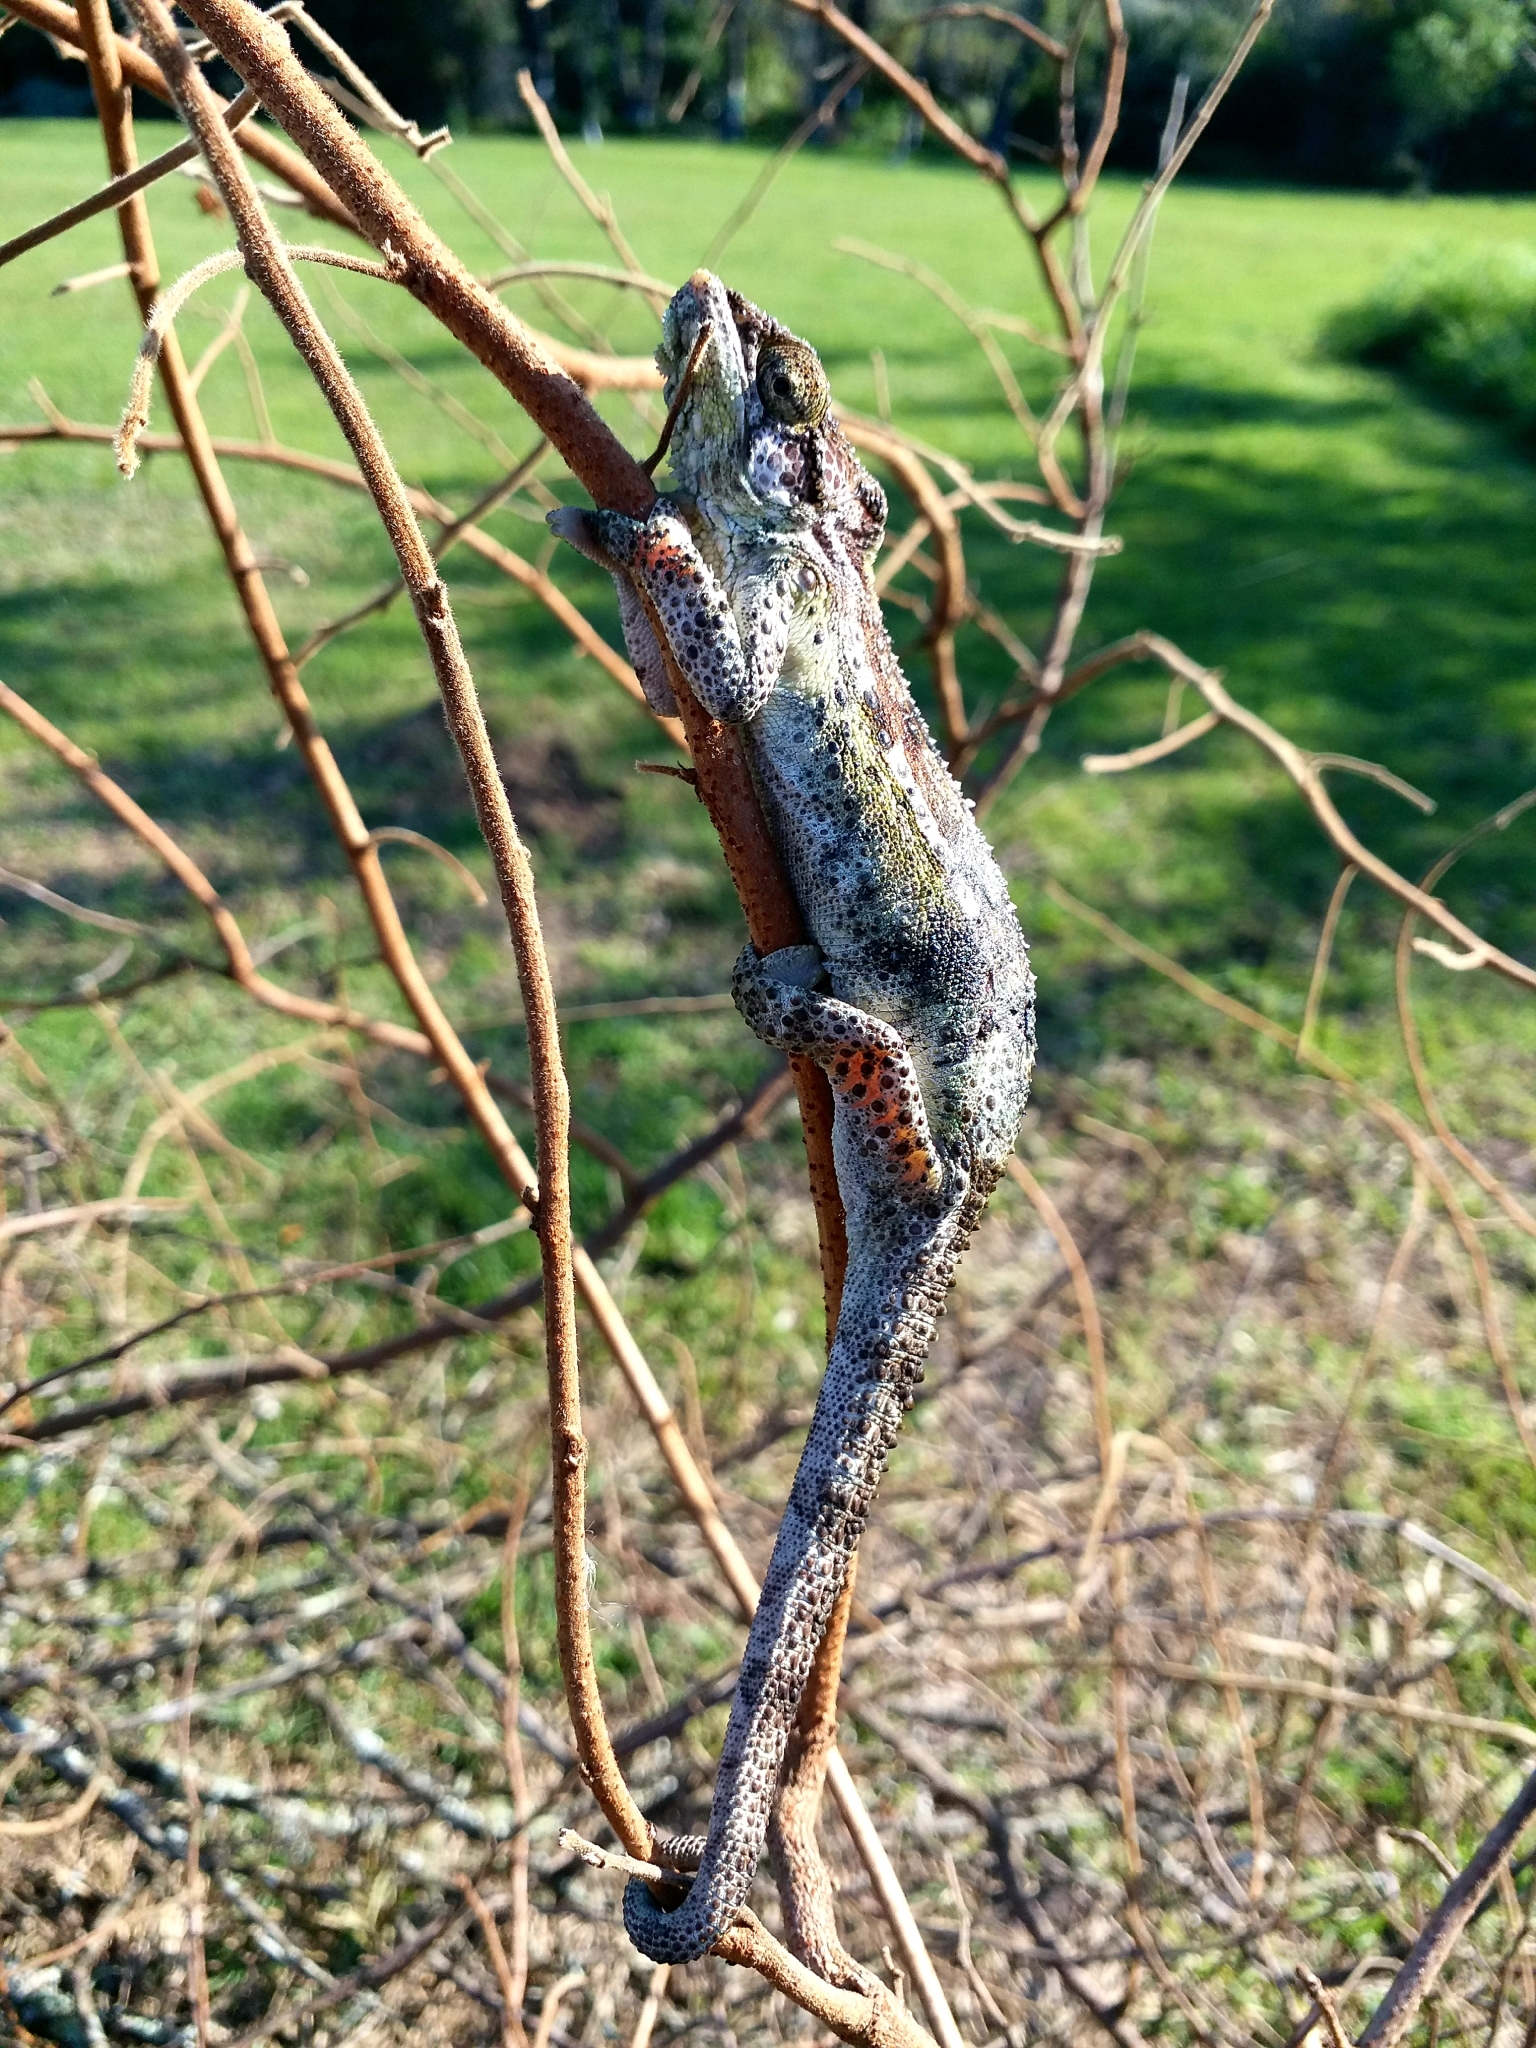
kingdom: Animalia
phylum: Chordata
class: Squamata
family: Chamaeleonidae
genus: Bradypodion
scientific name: Bradypodion damaranum
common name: Knysna dwarf chameleon
